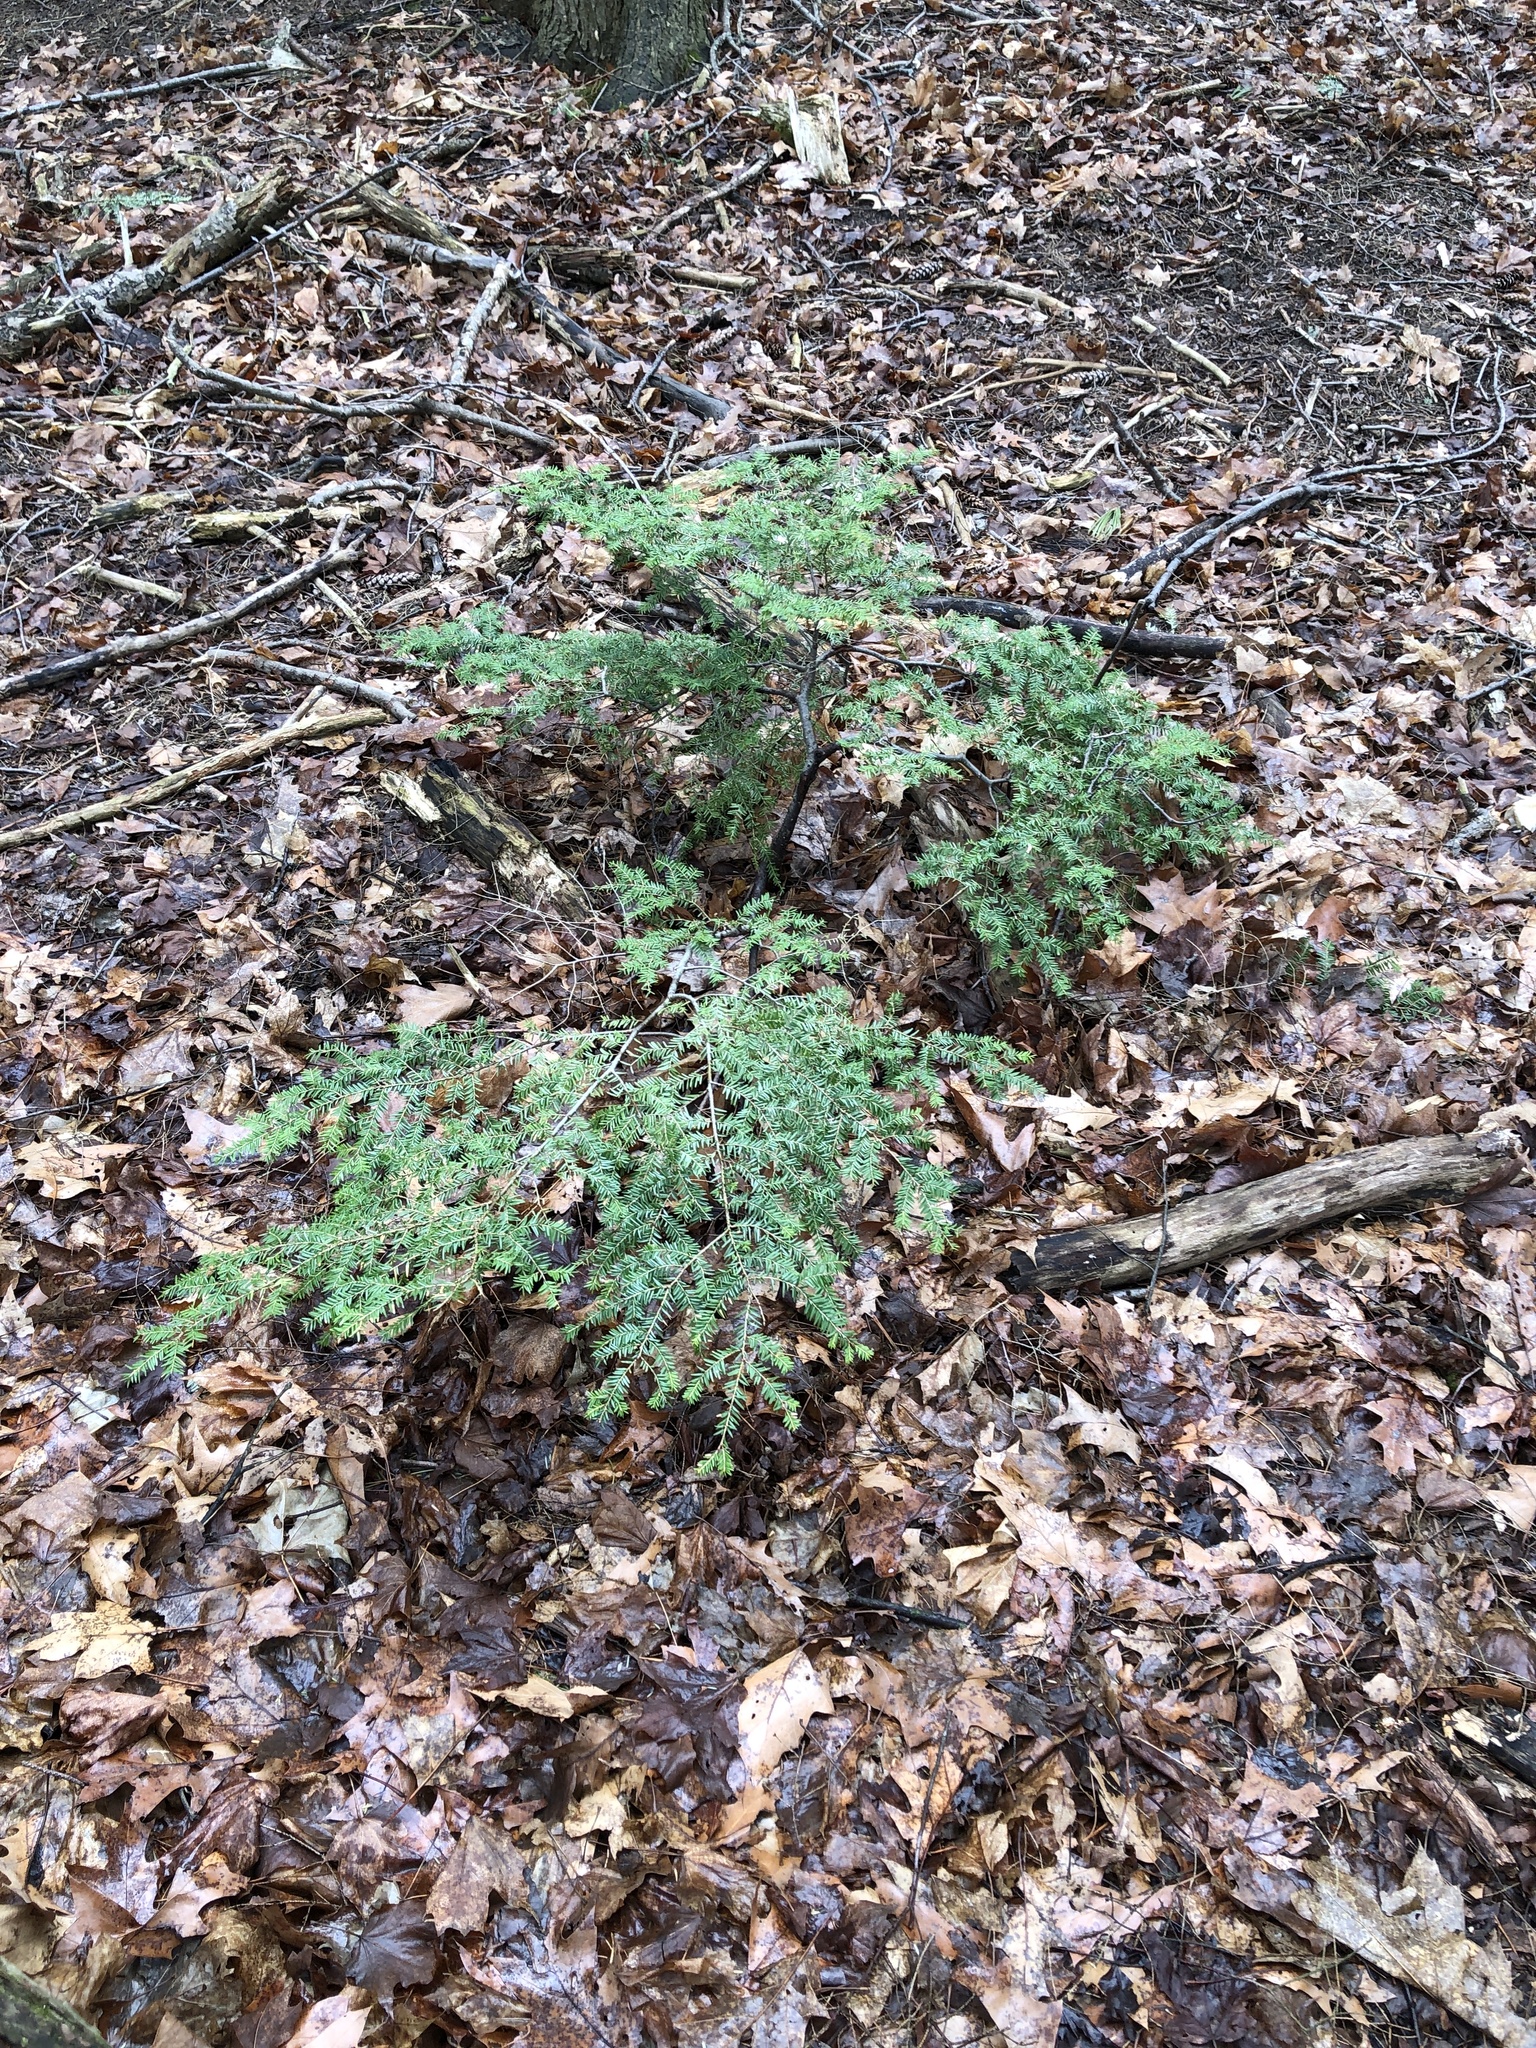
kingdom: Plantae
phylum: Tracheophyta
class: Pinopsida
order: Pinales
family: Pinaceae
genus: Tsuga
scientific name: Tsuga canadensis
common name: Eastern hemlock
